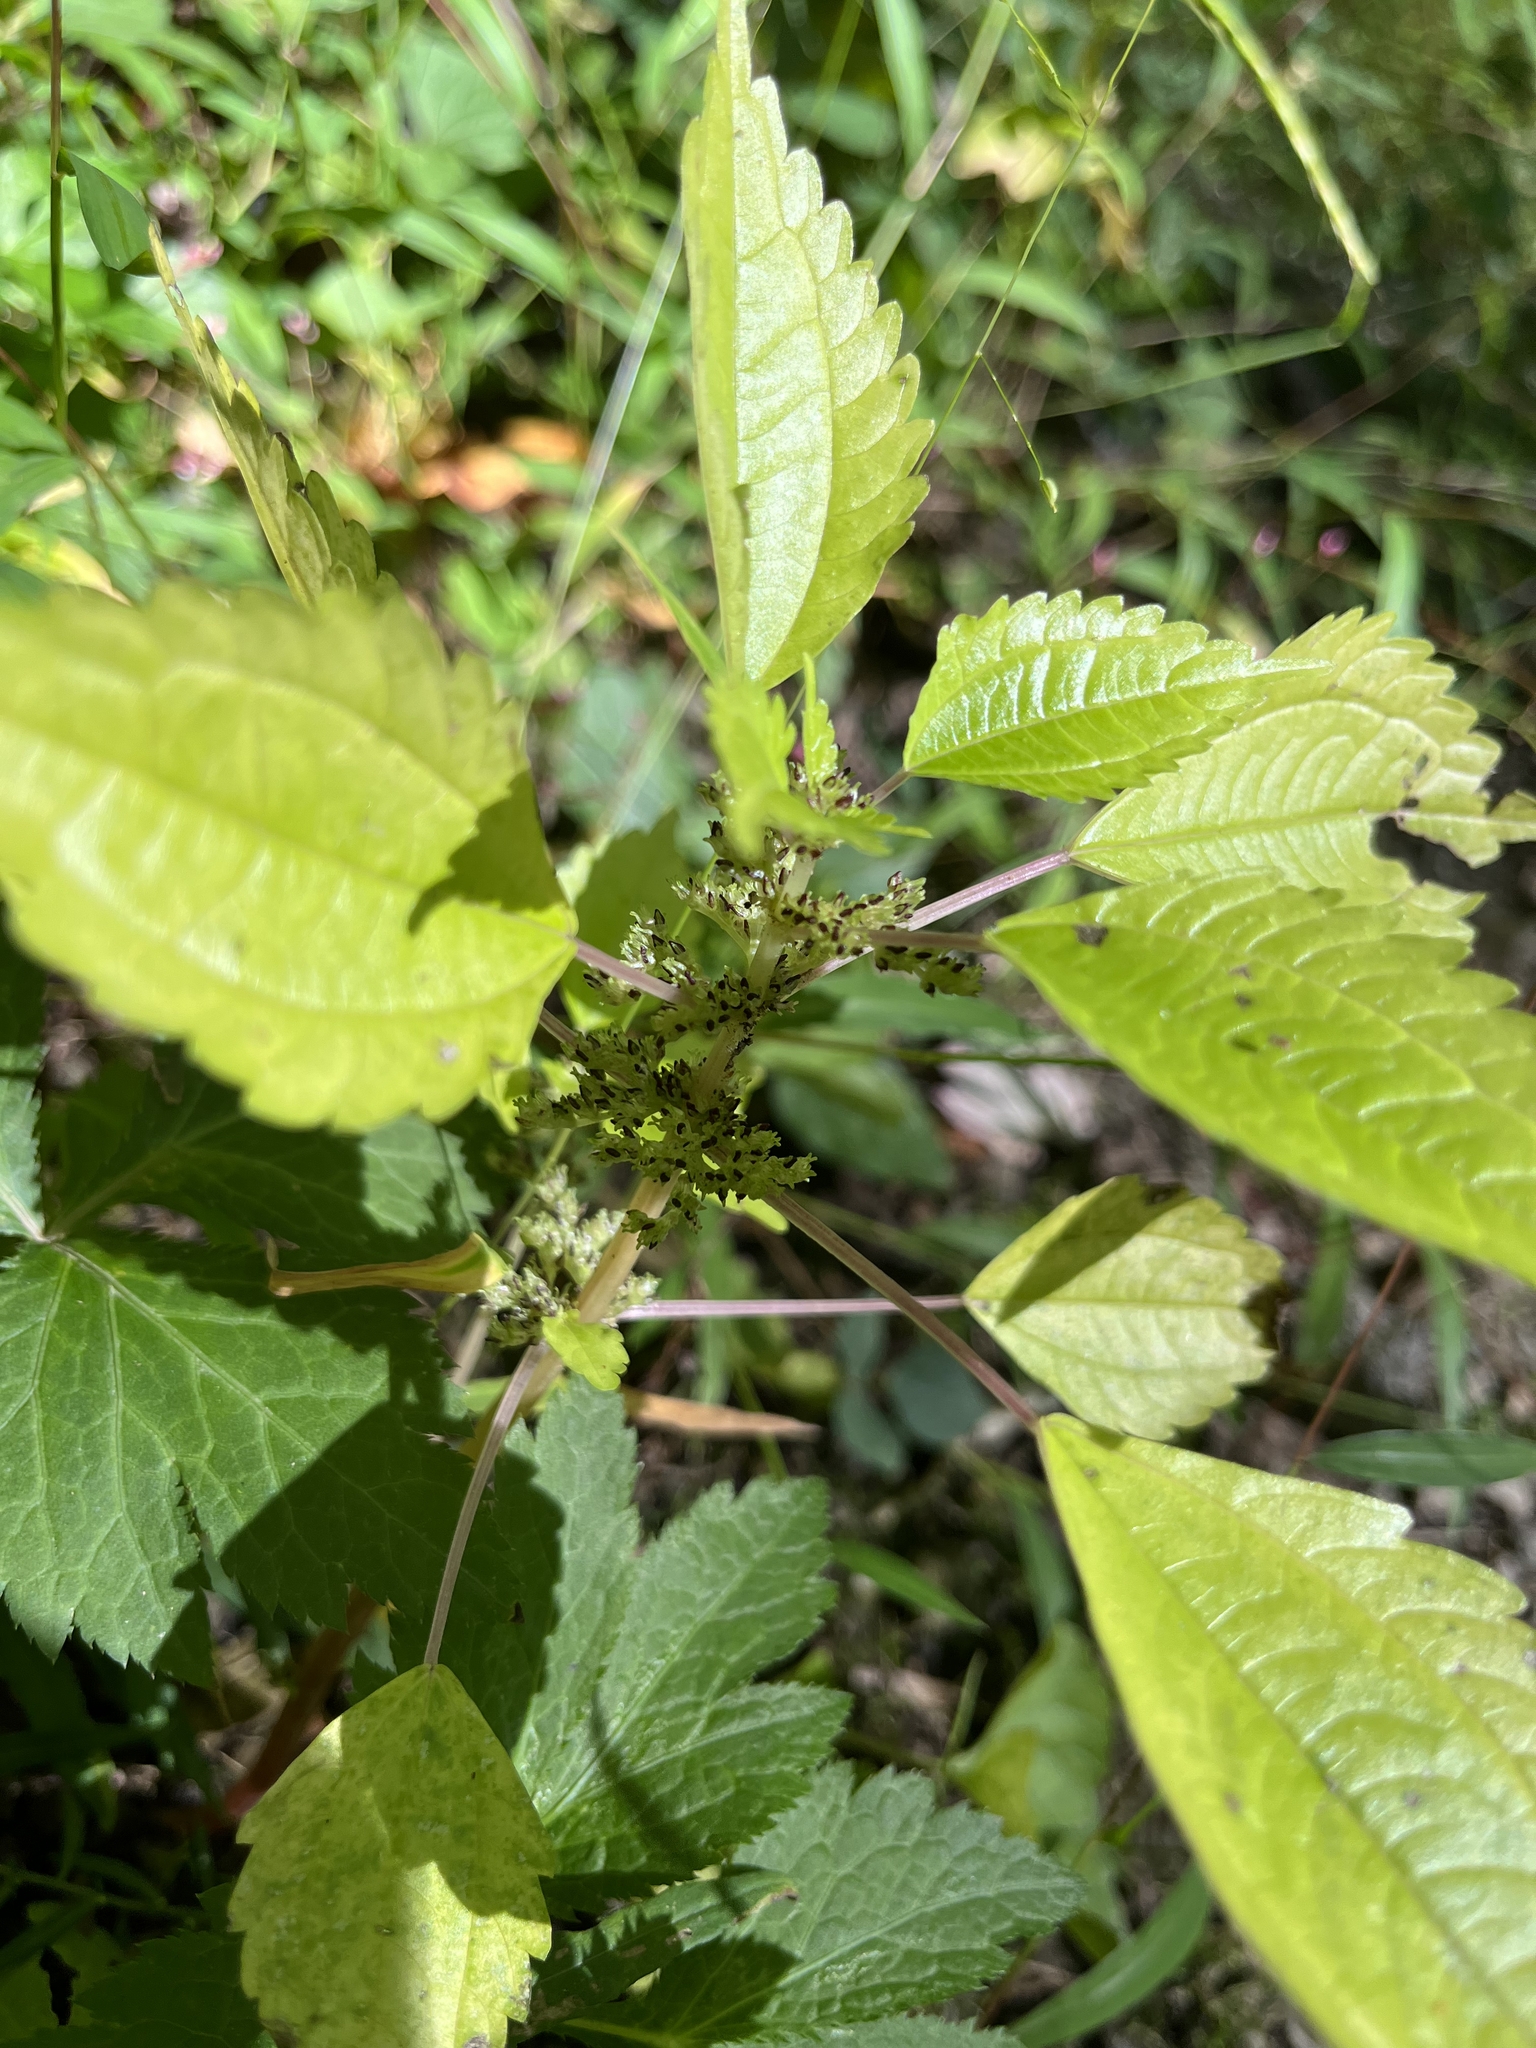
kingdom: Plantae
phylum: Tracheophyta
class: Magnoliopsida
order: Rosales
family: Urticaceae
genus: Pilea
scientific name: Pilea pumila
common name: Clearweed
